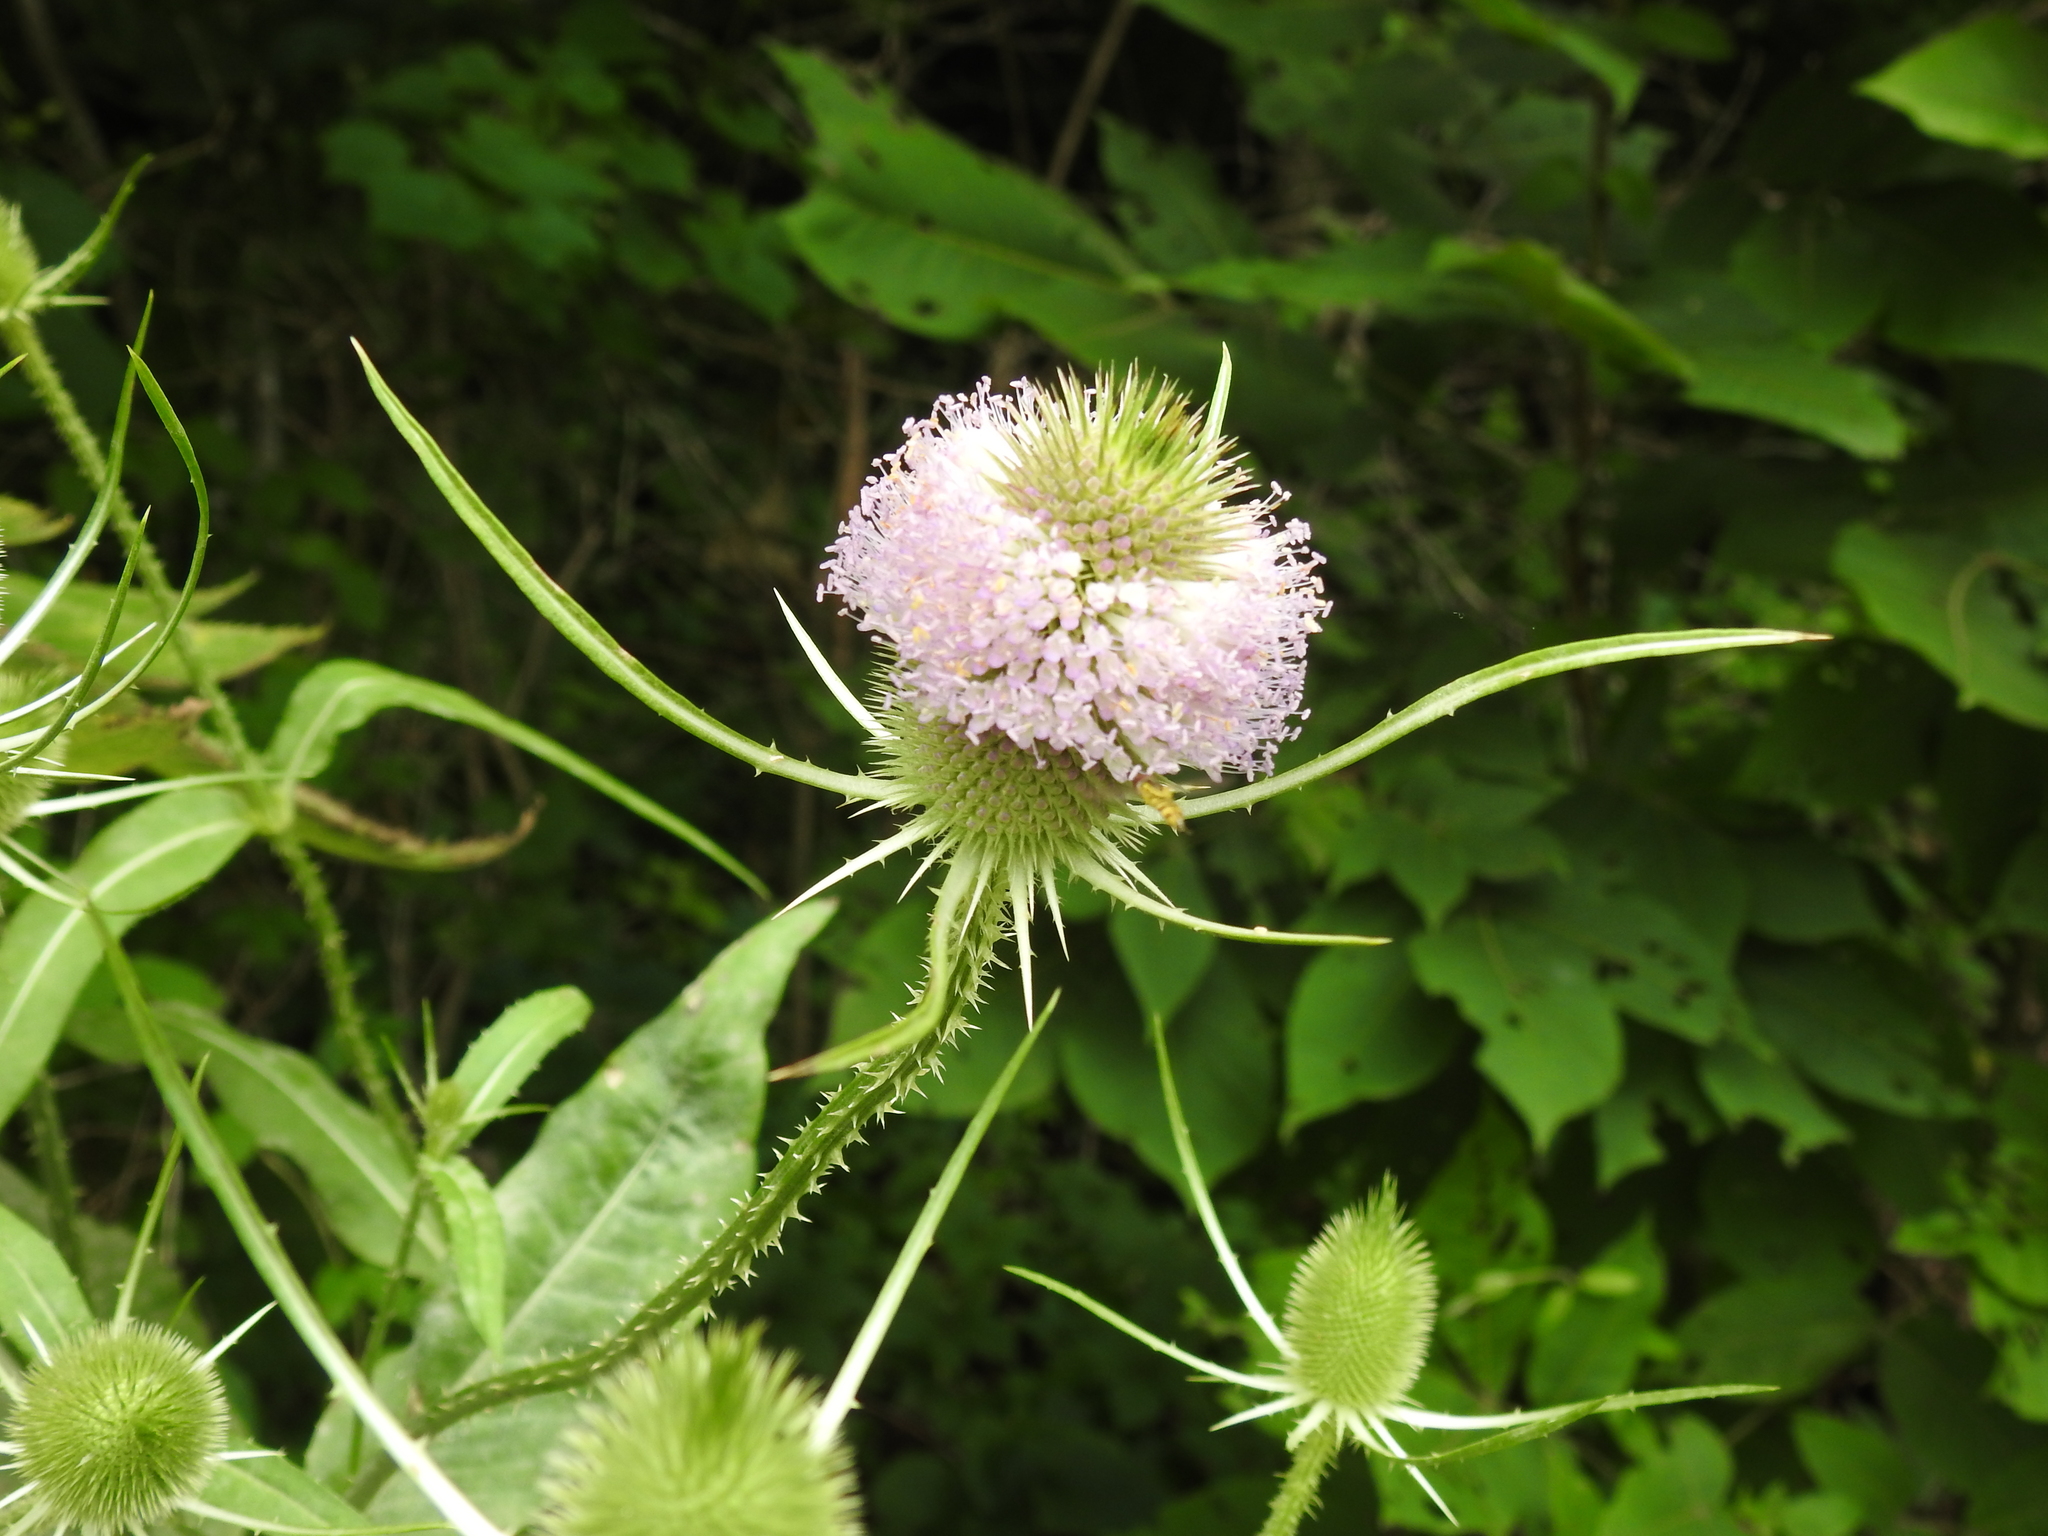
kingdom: Plantae
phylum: Tracheophyta
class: Magnoliopsida
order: Dipsacales
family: Caprifoliaceae
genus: Dipsacus
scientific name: Dipsacus fullonum
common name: Teasel
